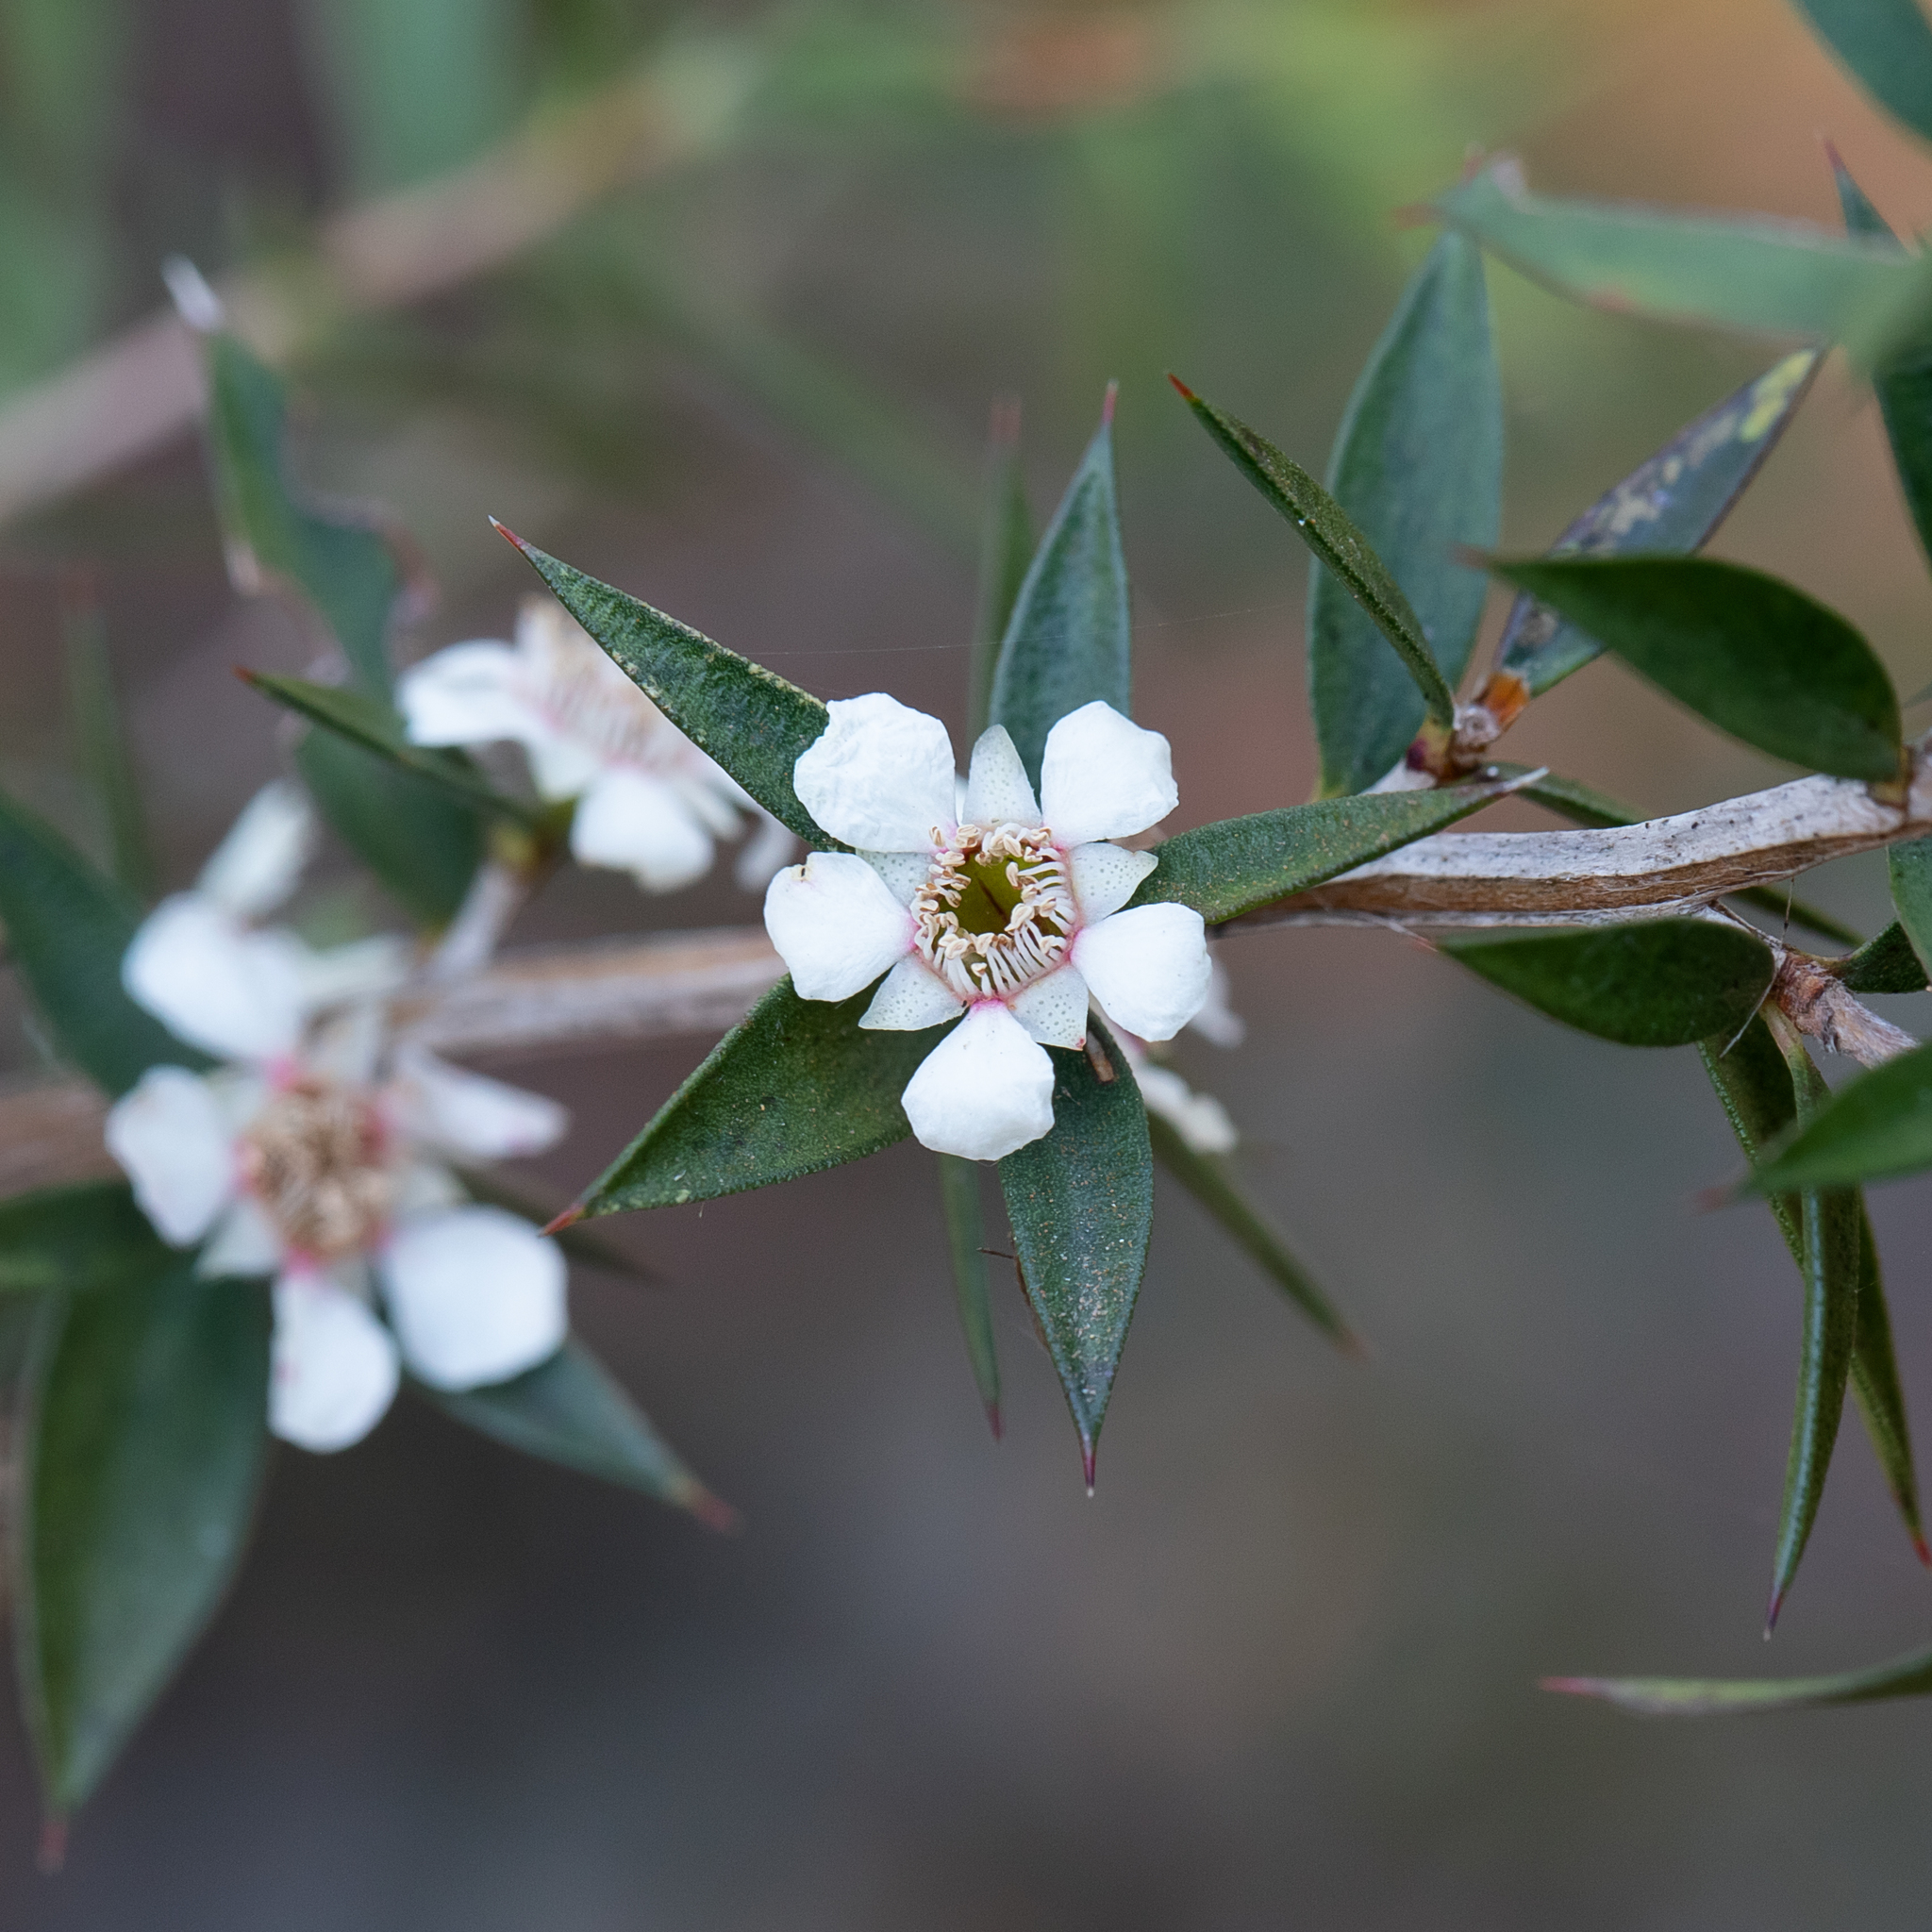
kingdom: Plantae
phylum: Tracheophyta
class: Magnoliopsida
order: Myrtales
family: Myrtaceae
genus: Leptospermum
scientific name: Leptospermum scoparium
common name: Broom tea-tree
